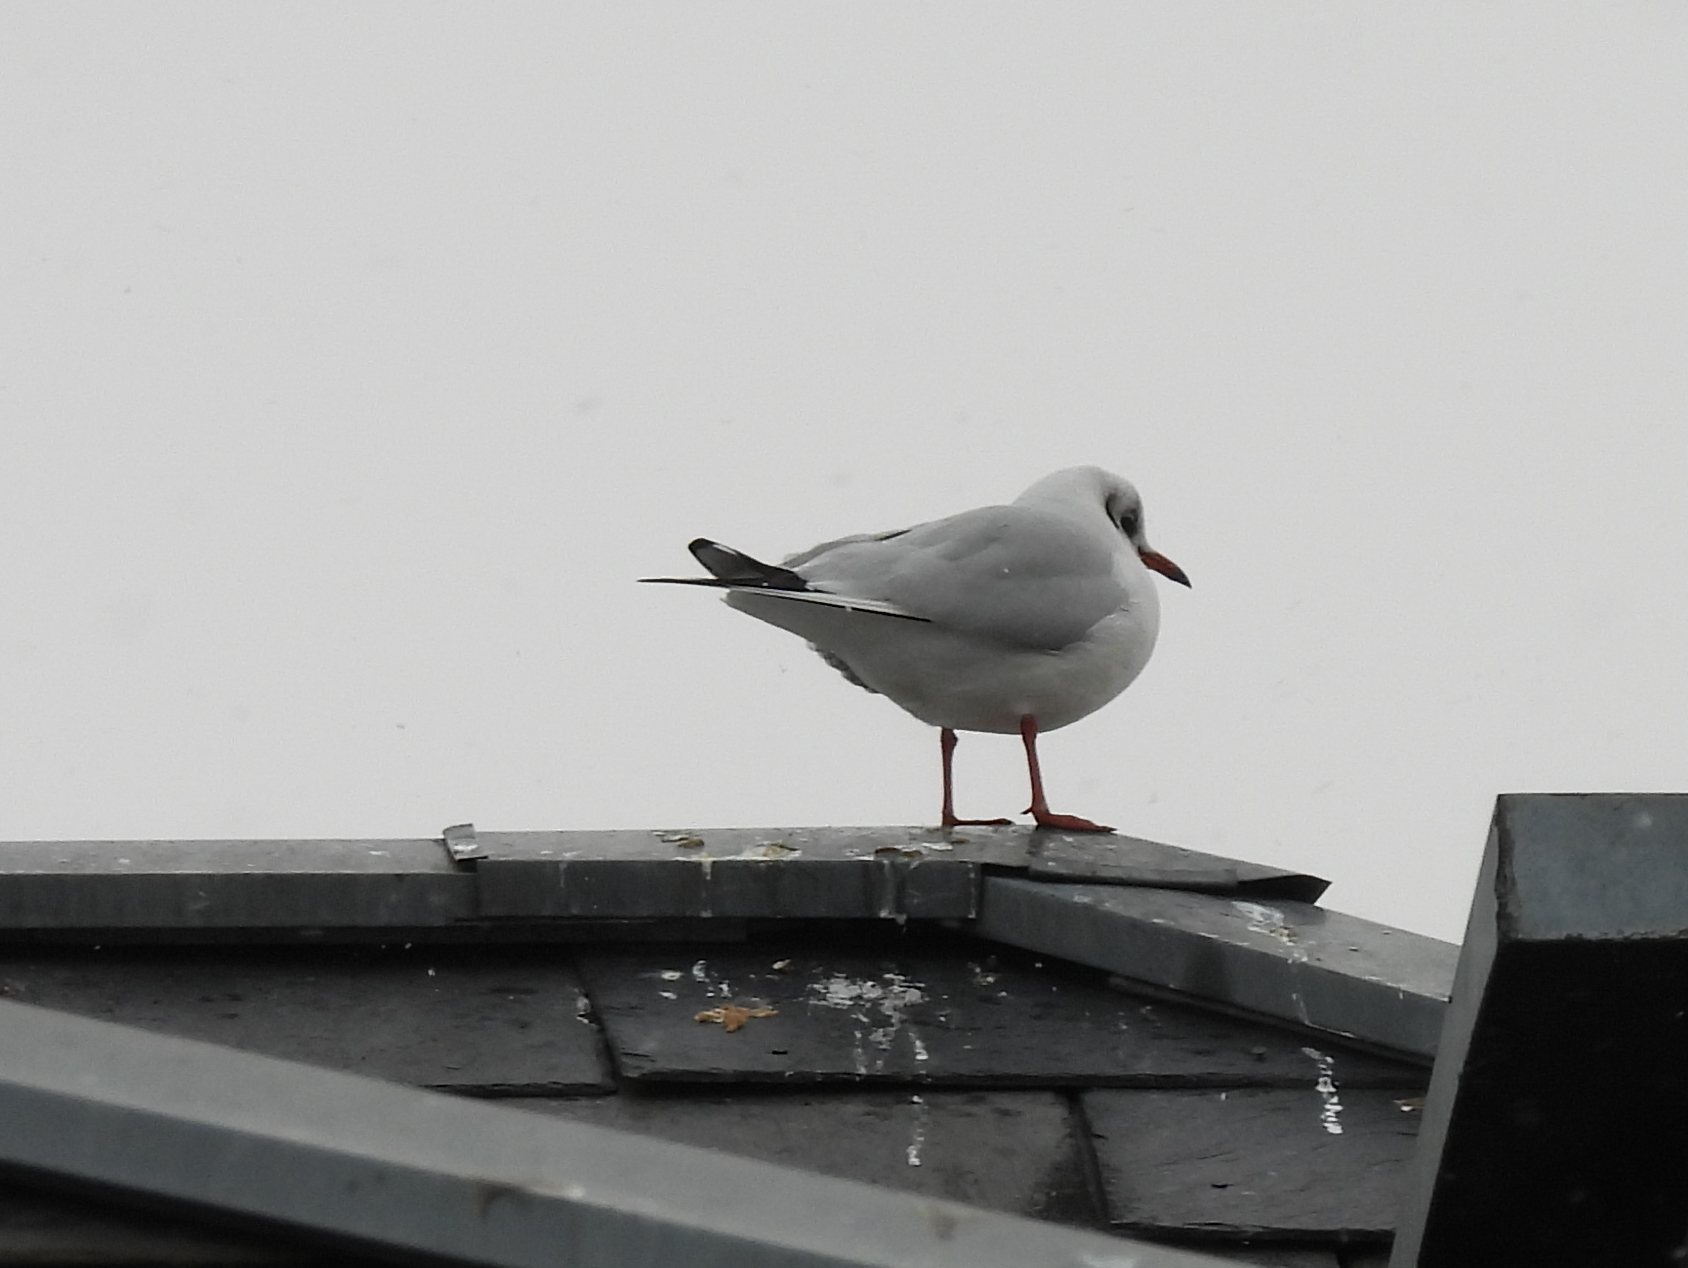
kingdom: Animalia
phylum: Chordata
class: Aves
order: Charadriiformes
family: Laridae
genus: Chroicocephalus
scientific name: Chroicocephalus ridibundus
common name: Black-headed gull
